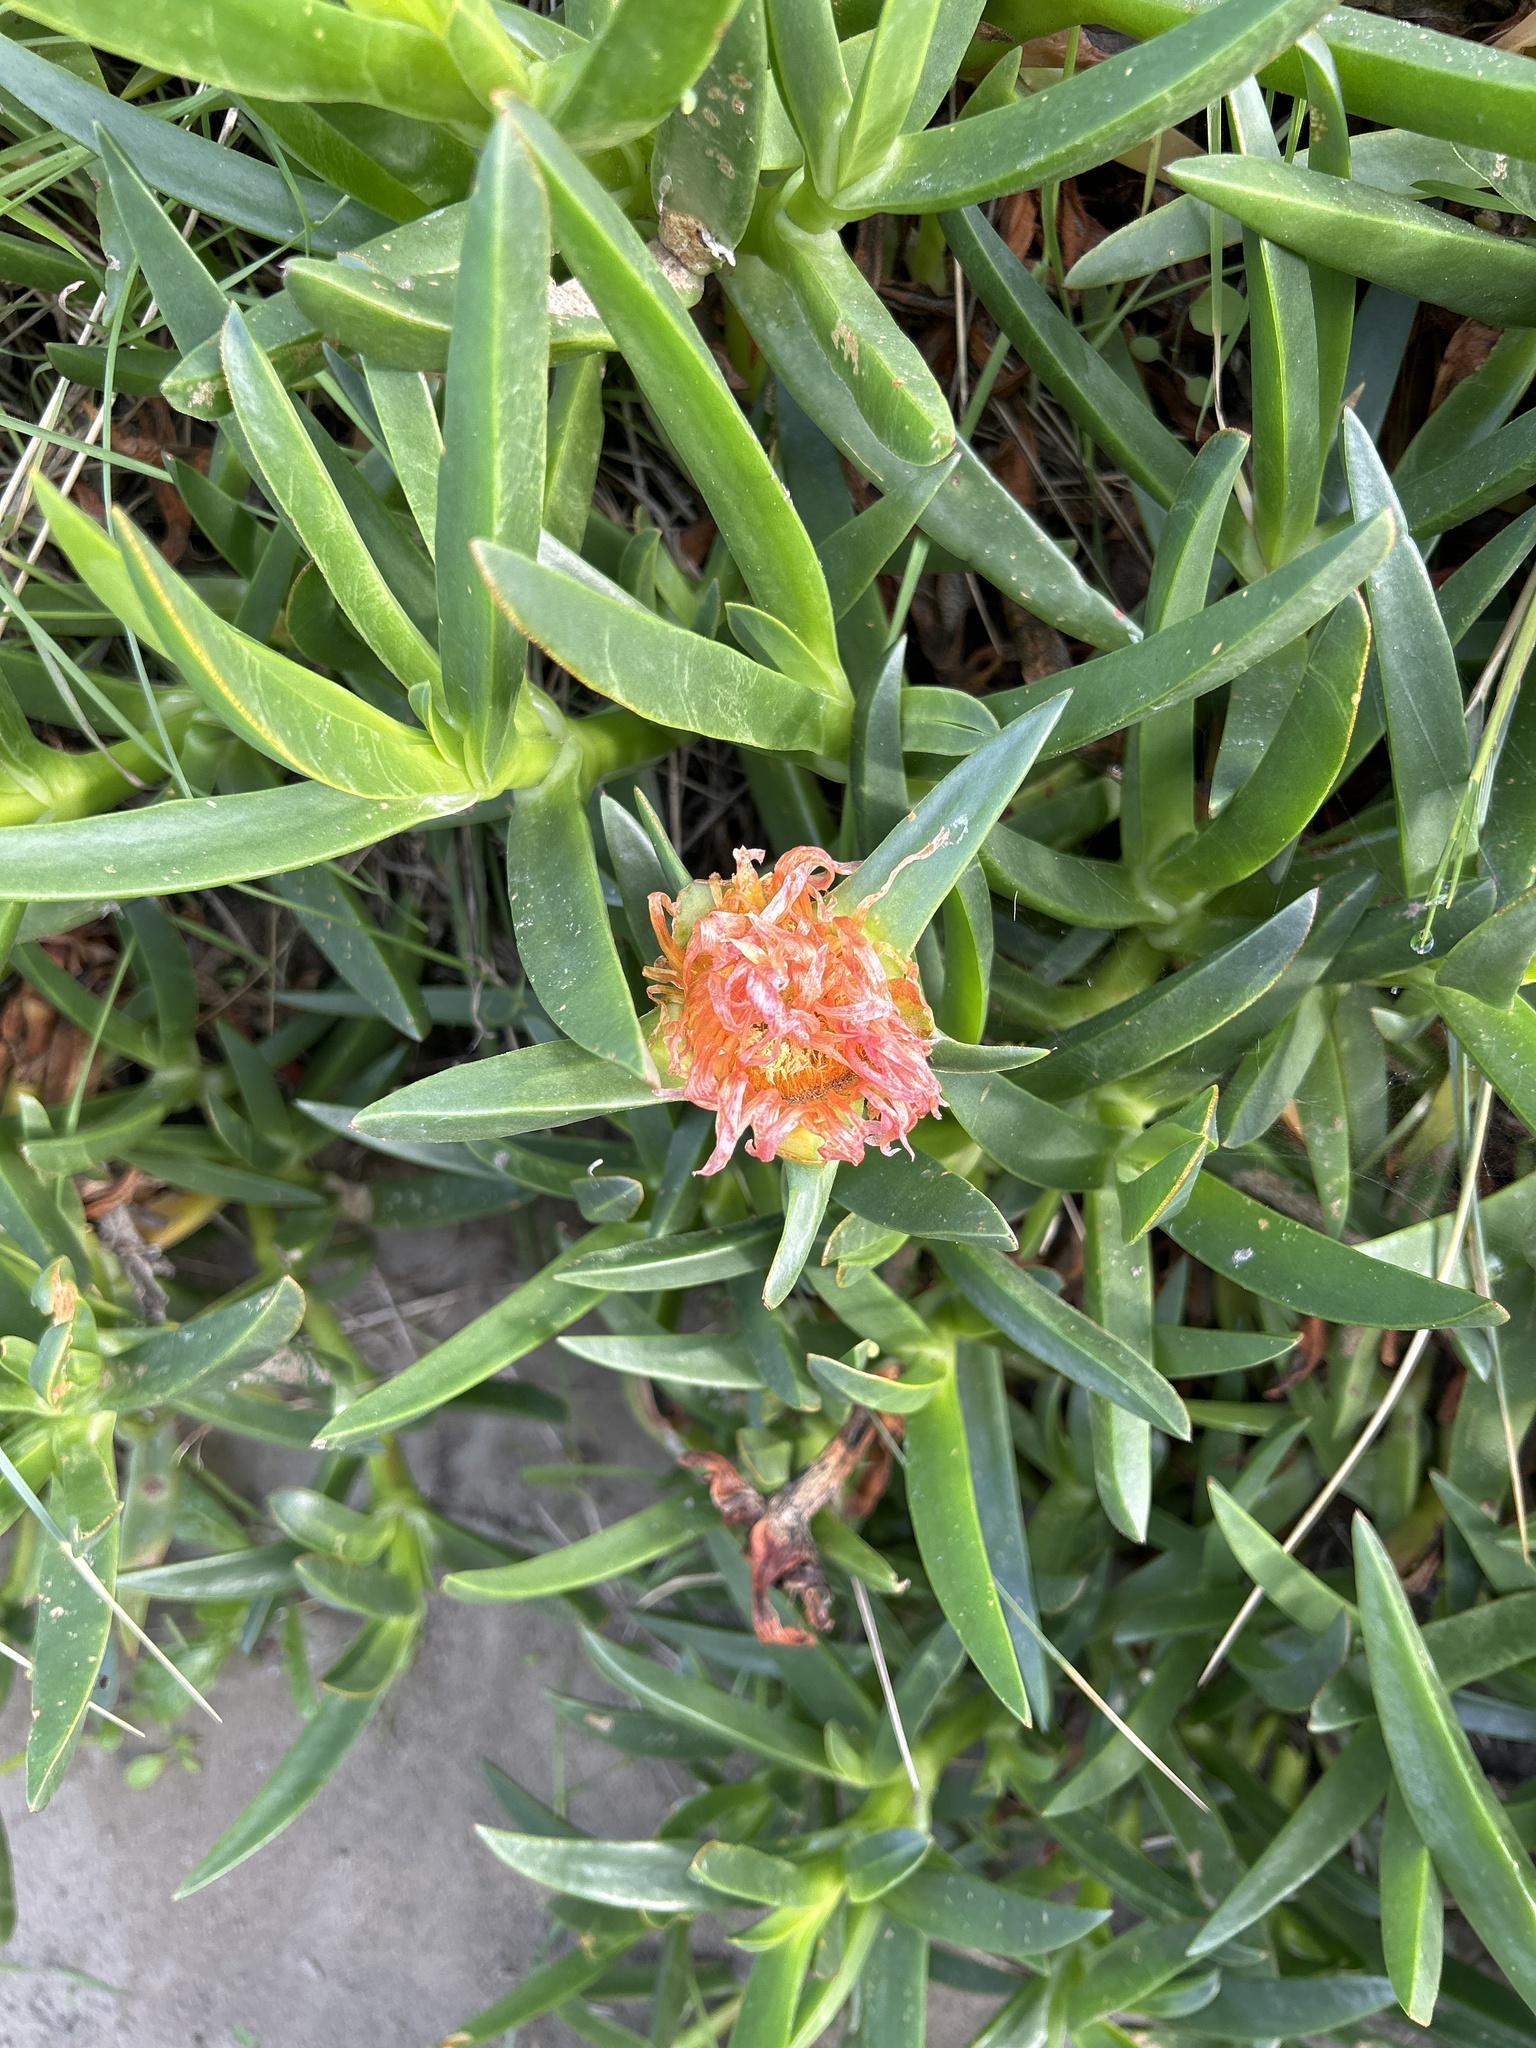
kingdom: Plantae
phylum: Tracheophyta
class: Magnoliopsida
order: Caryophyllales
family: Aizoaceae
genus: Carpobrotus
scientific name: Carpobrotus edulis
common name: Hottentot-fig
